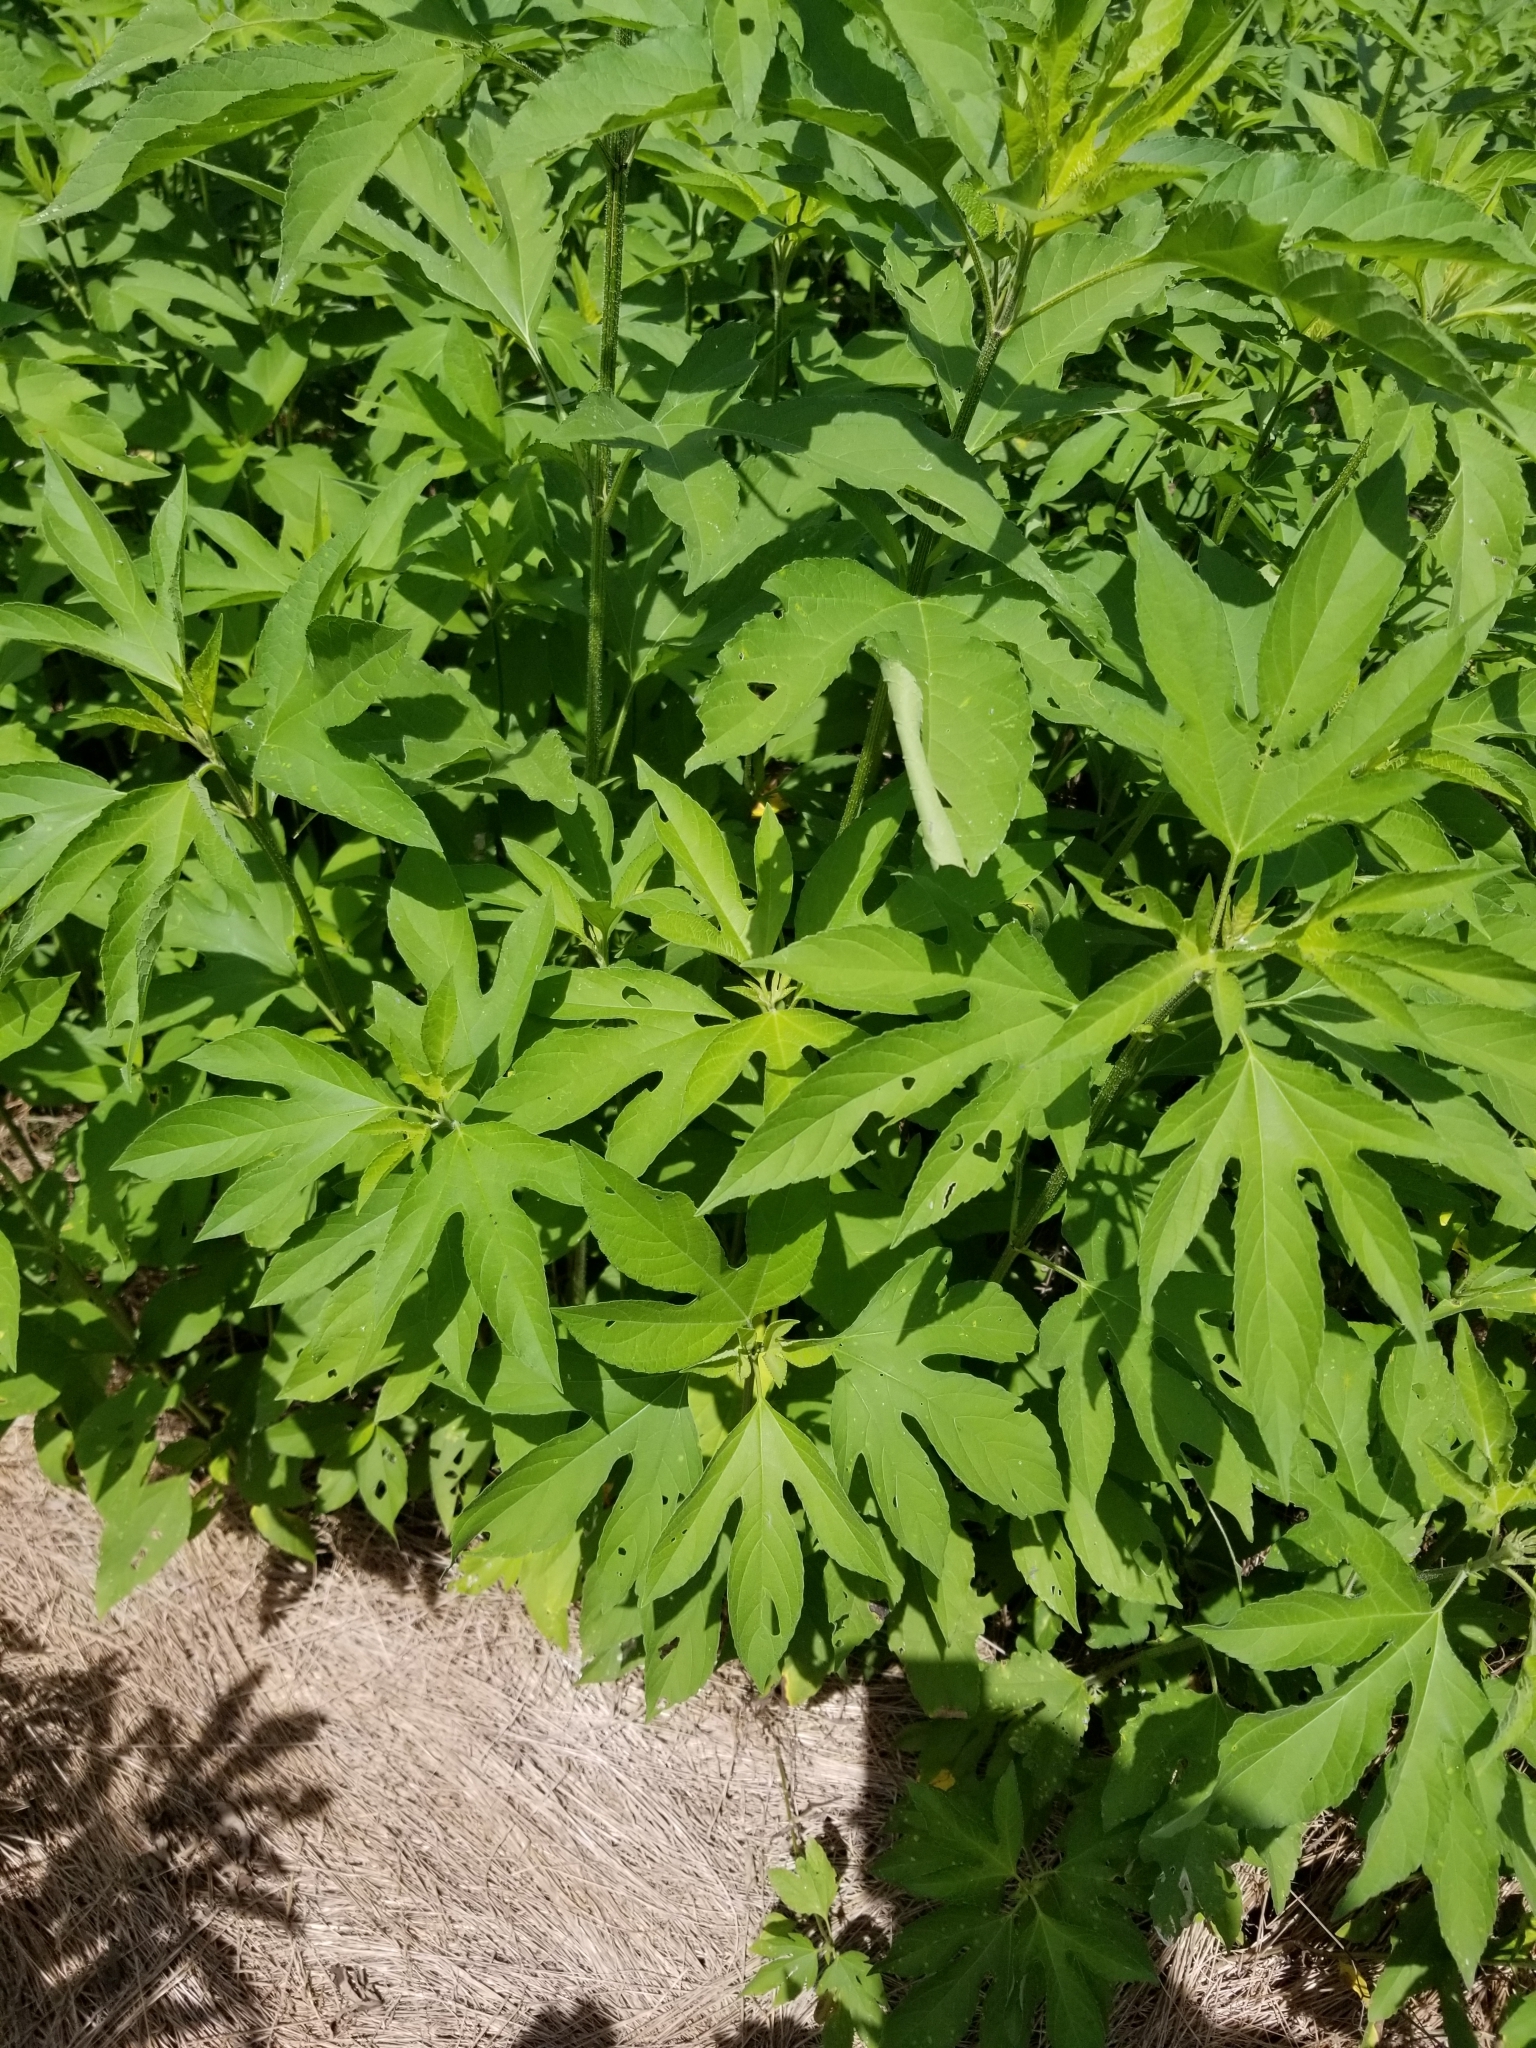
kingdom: Plantae
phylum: Tracheophyta
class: Magnoliopsida
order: Asterales
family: Asteraceae
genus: Ambrosia
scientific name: Ambrosia trifida
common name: Giant ragweed
